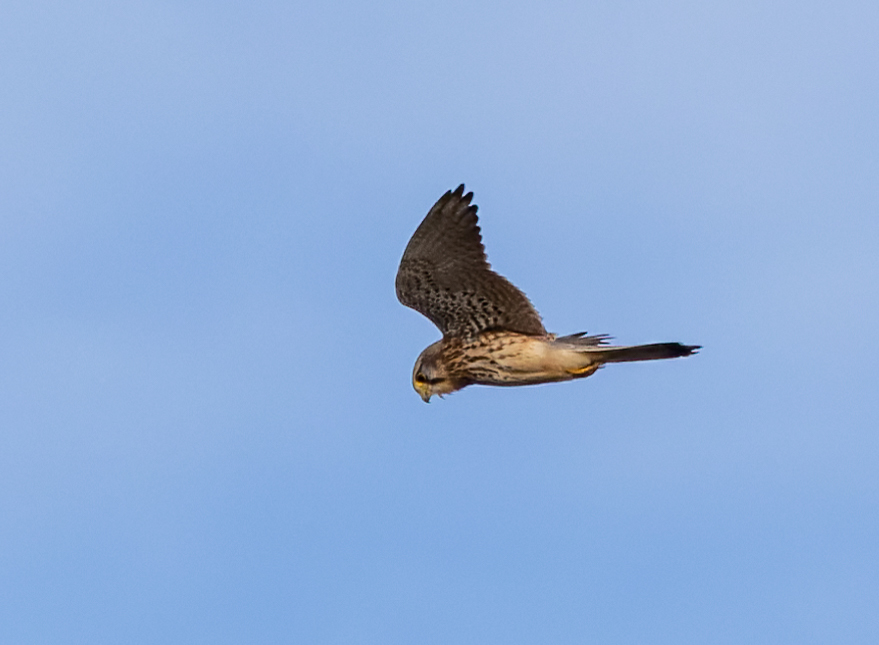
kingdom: Animalia
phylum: Chordata
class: Aves
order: Falconiformes
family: Falconidae
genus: Falco
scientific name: Falco tinnunculus
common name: Common kestrel
